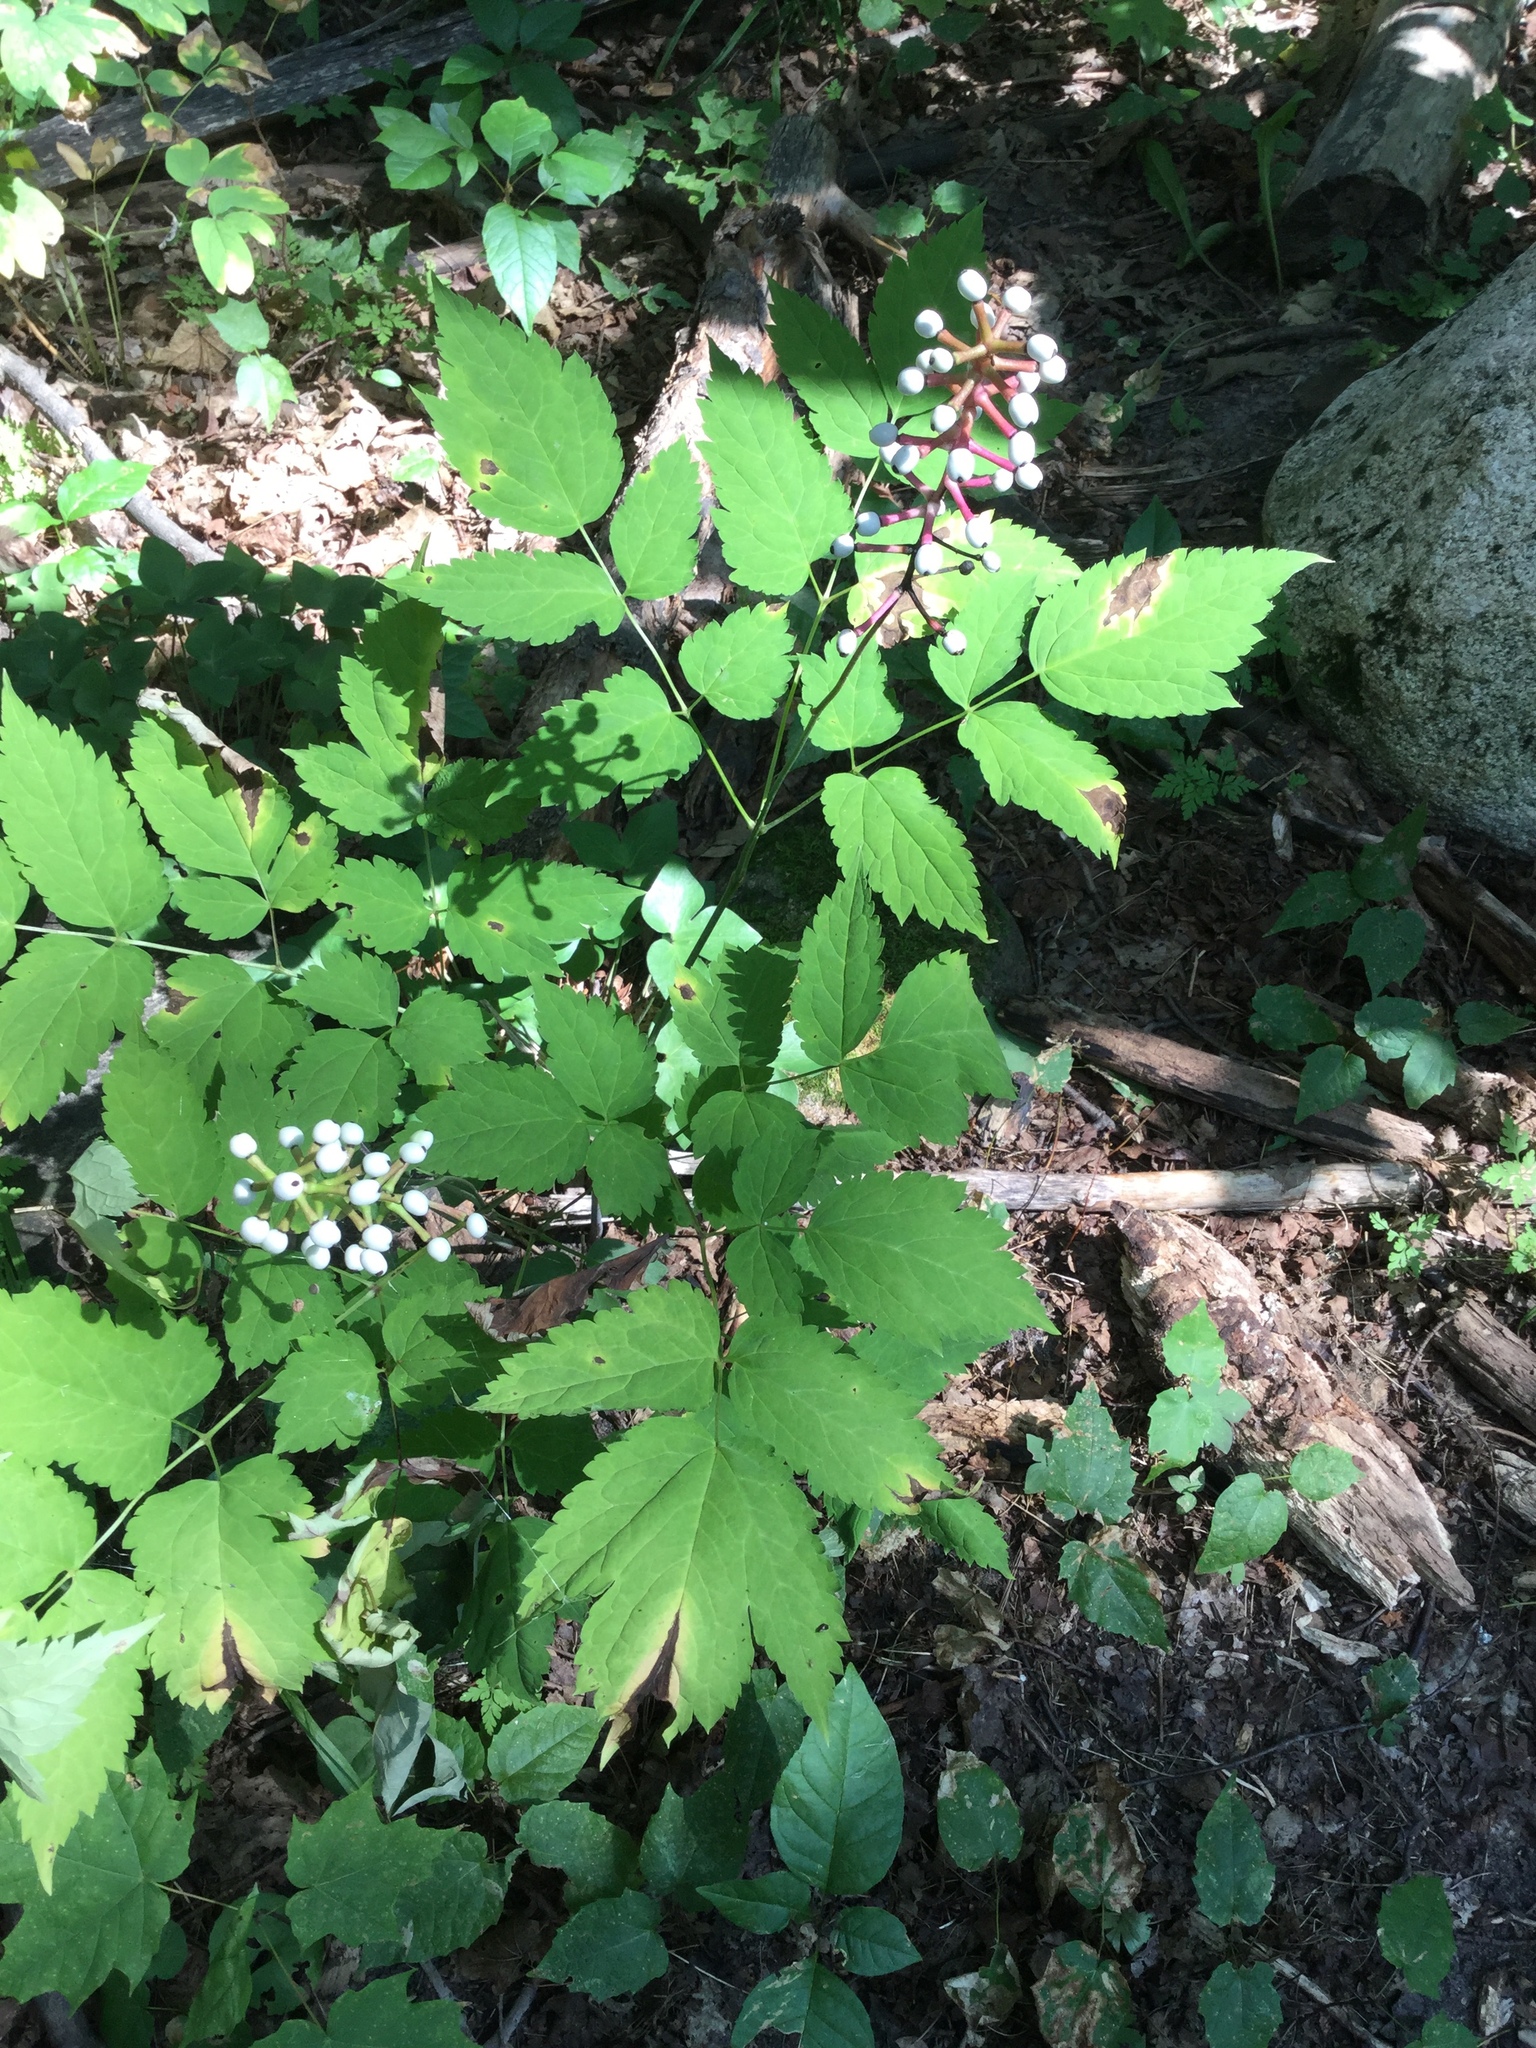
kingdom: Plantae
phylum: Tracheophyta
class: Magnoliopsida
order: Ranunculales
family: Ranunculaceae
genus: Actaea
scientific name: Actaea pachypoda
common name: Doll's-eyes
